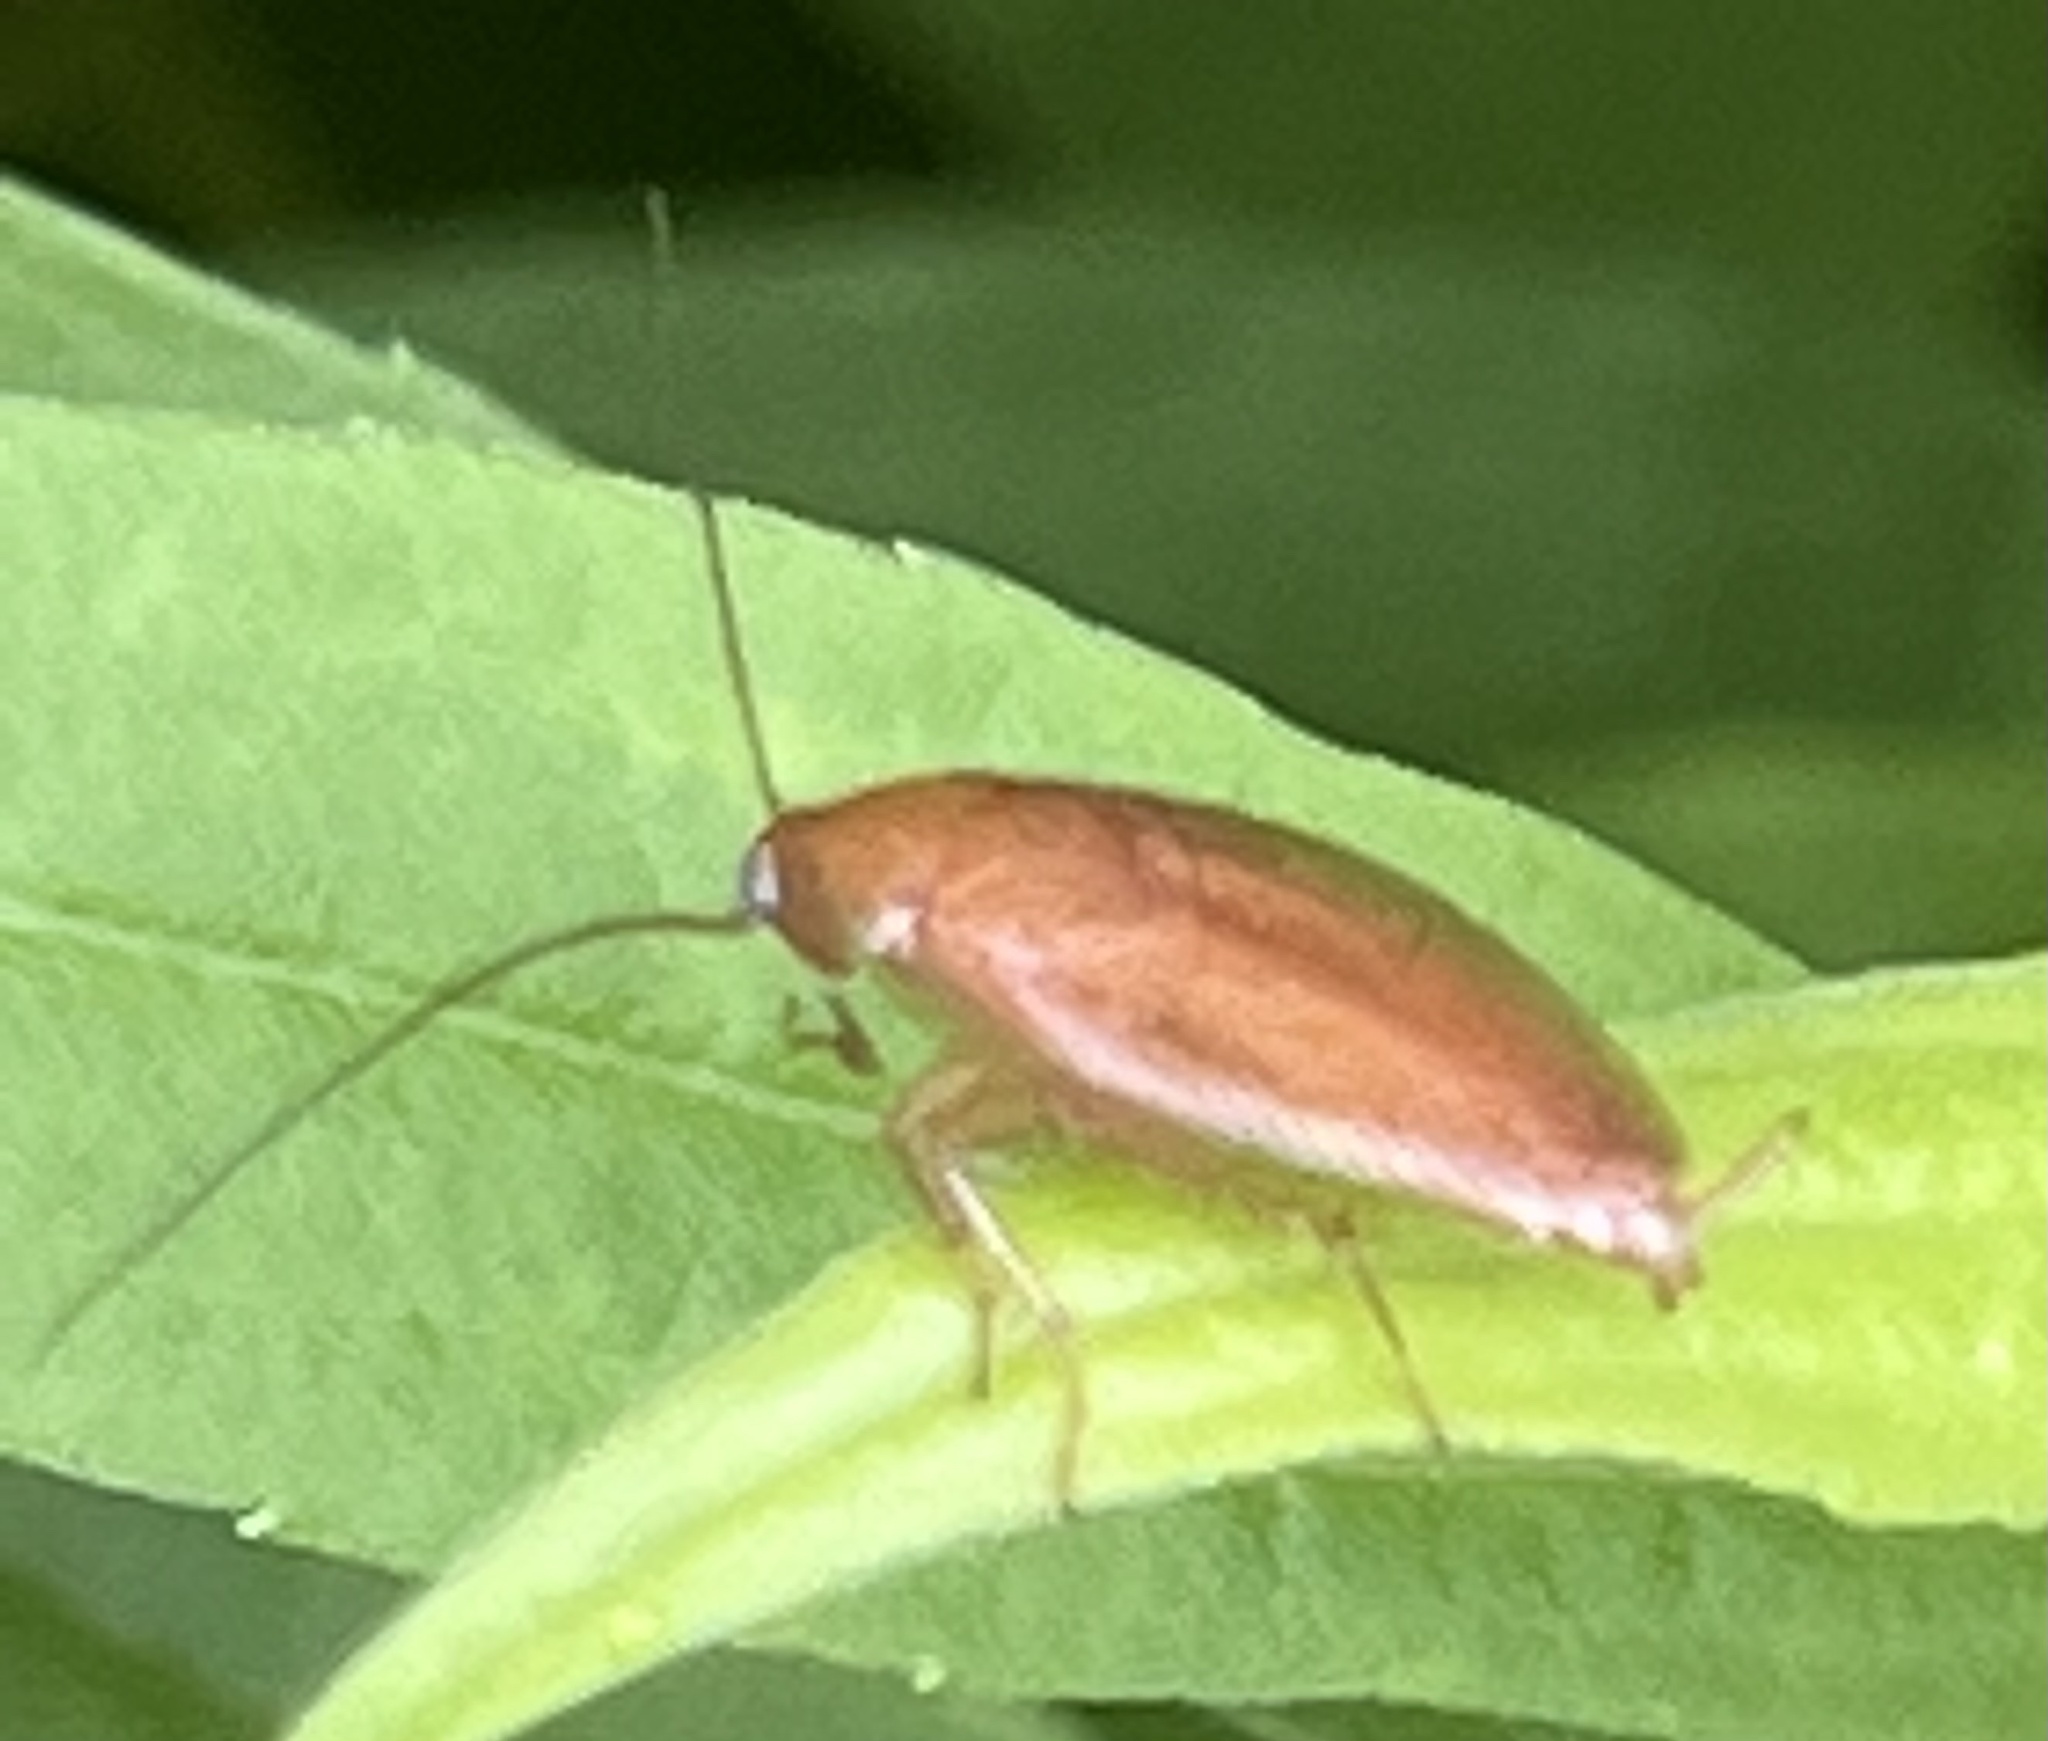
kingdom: Animalia
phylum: Arthropoda
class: Insecta
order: Blattodea
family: Ectobiidae
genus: Ectobius
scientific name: Ectobius pallidus
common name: Tawny cockroach
